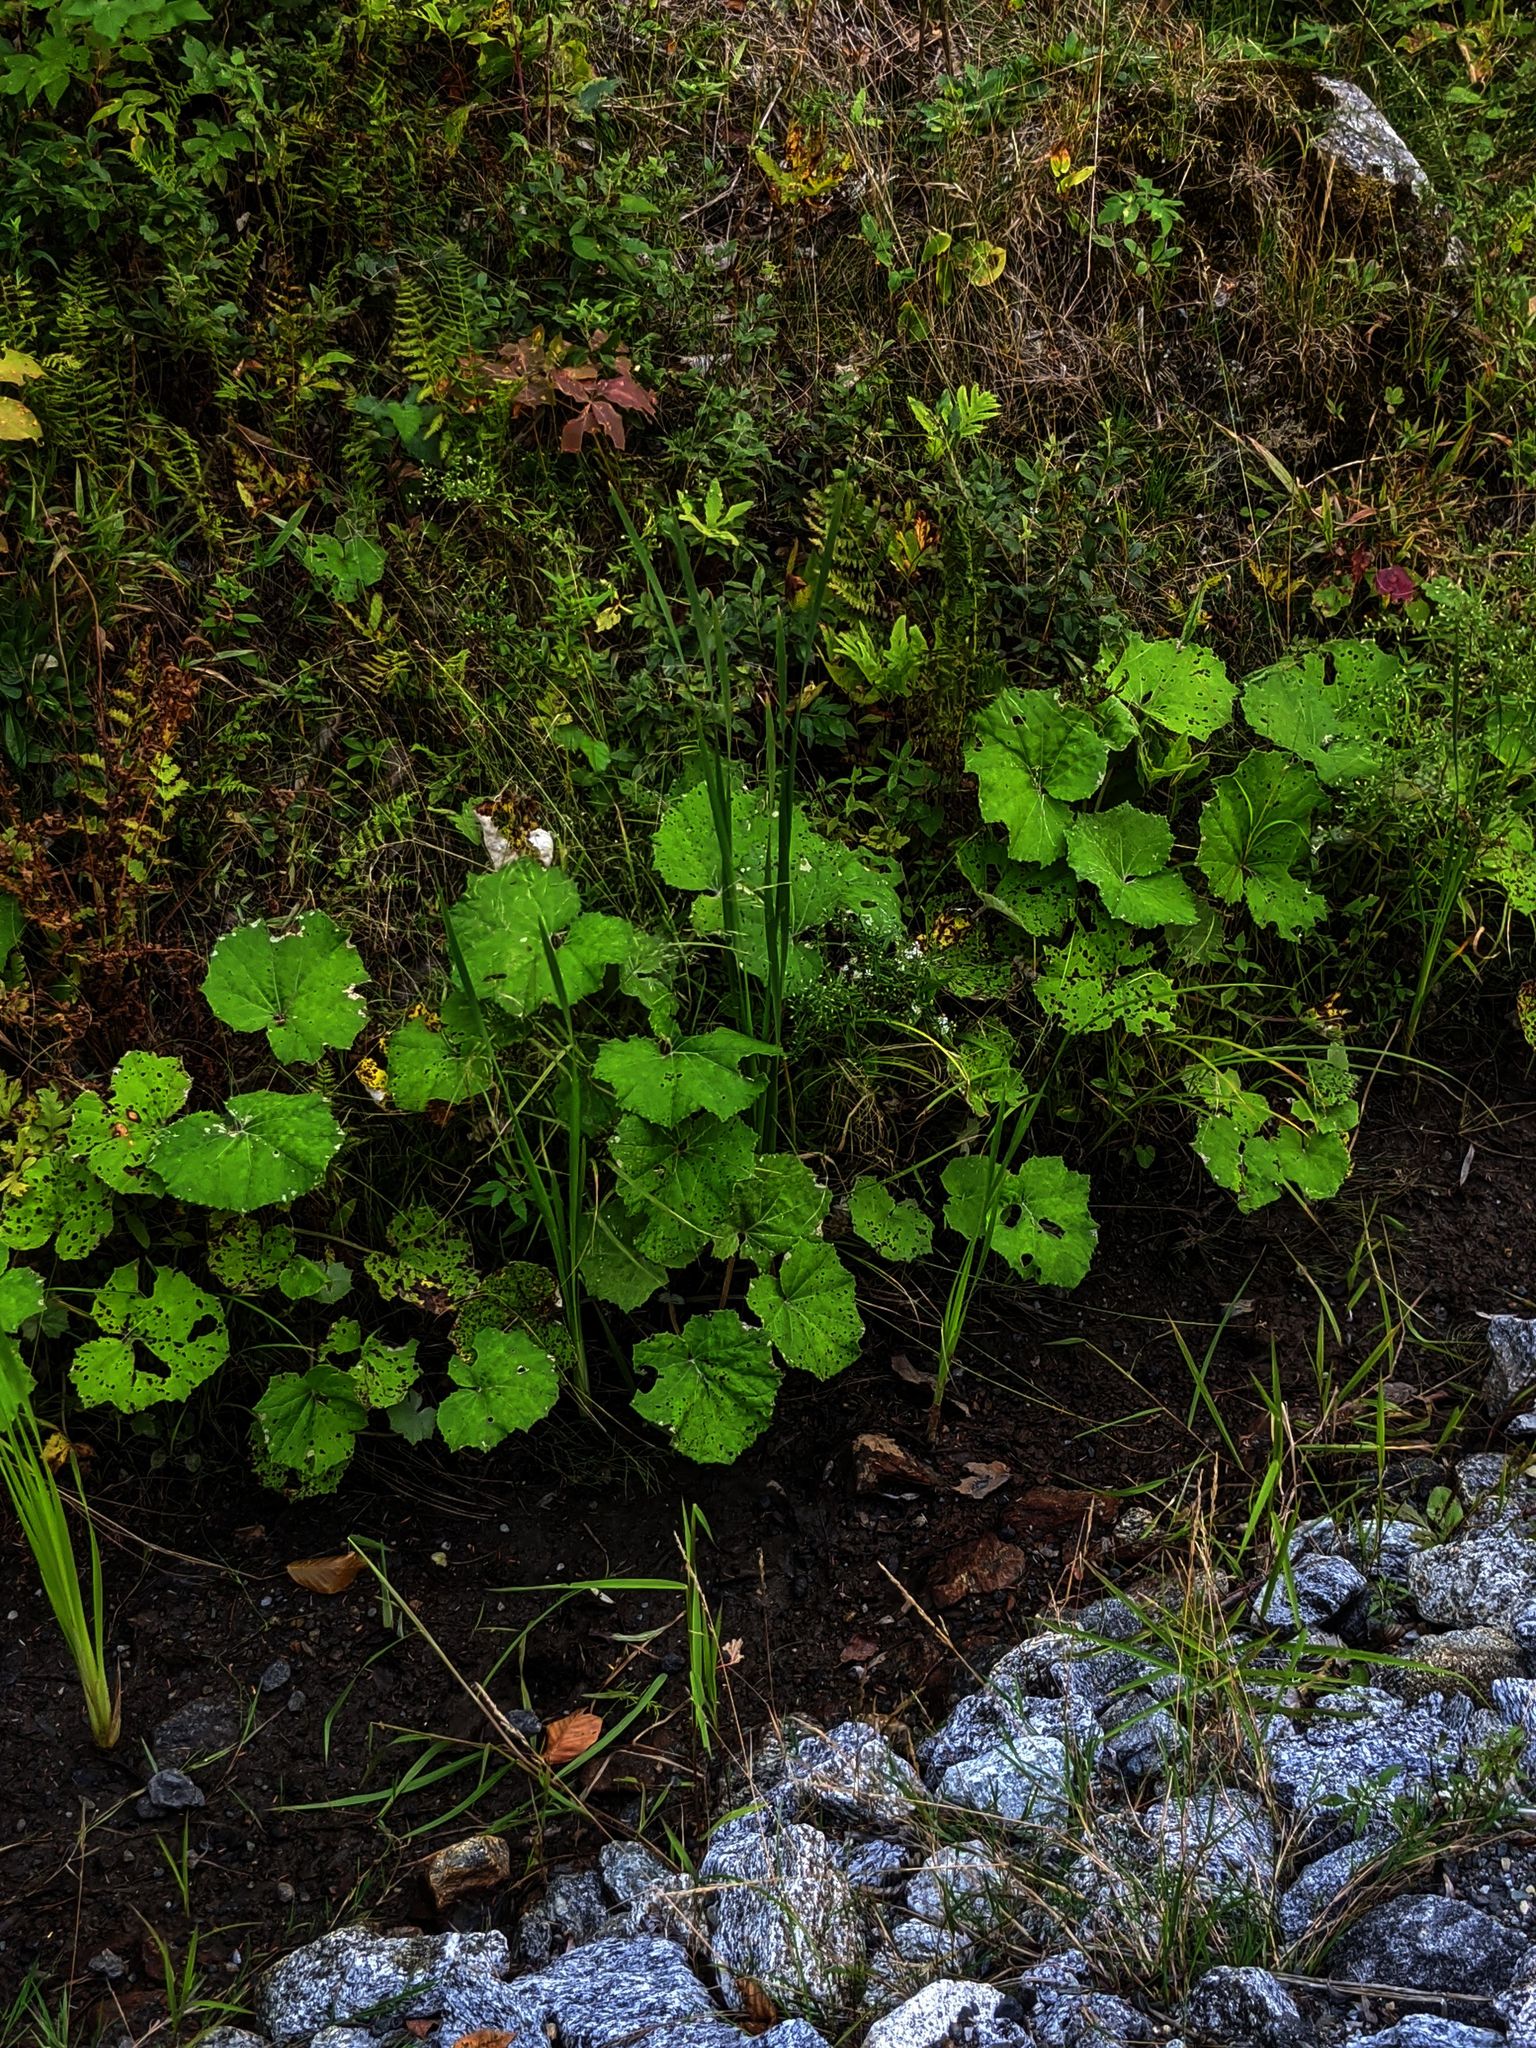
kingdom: Plantae
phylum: Tracheophyta
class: Magnoliopsida
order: Asterales
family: Asteraceae
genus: Tussilago
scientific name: Tussilago farfara
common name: Coltsfoot
